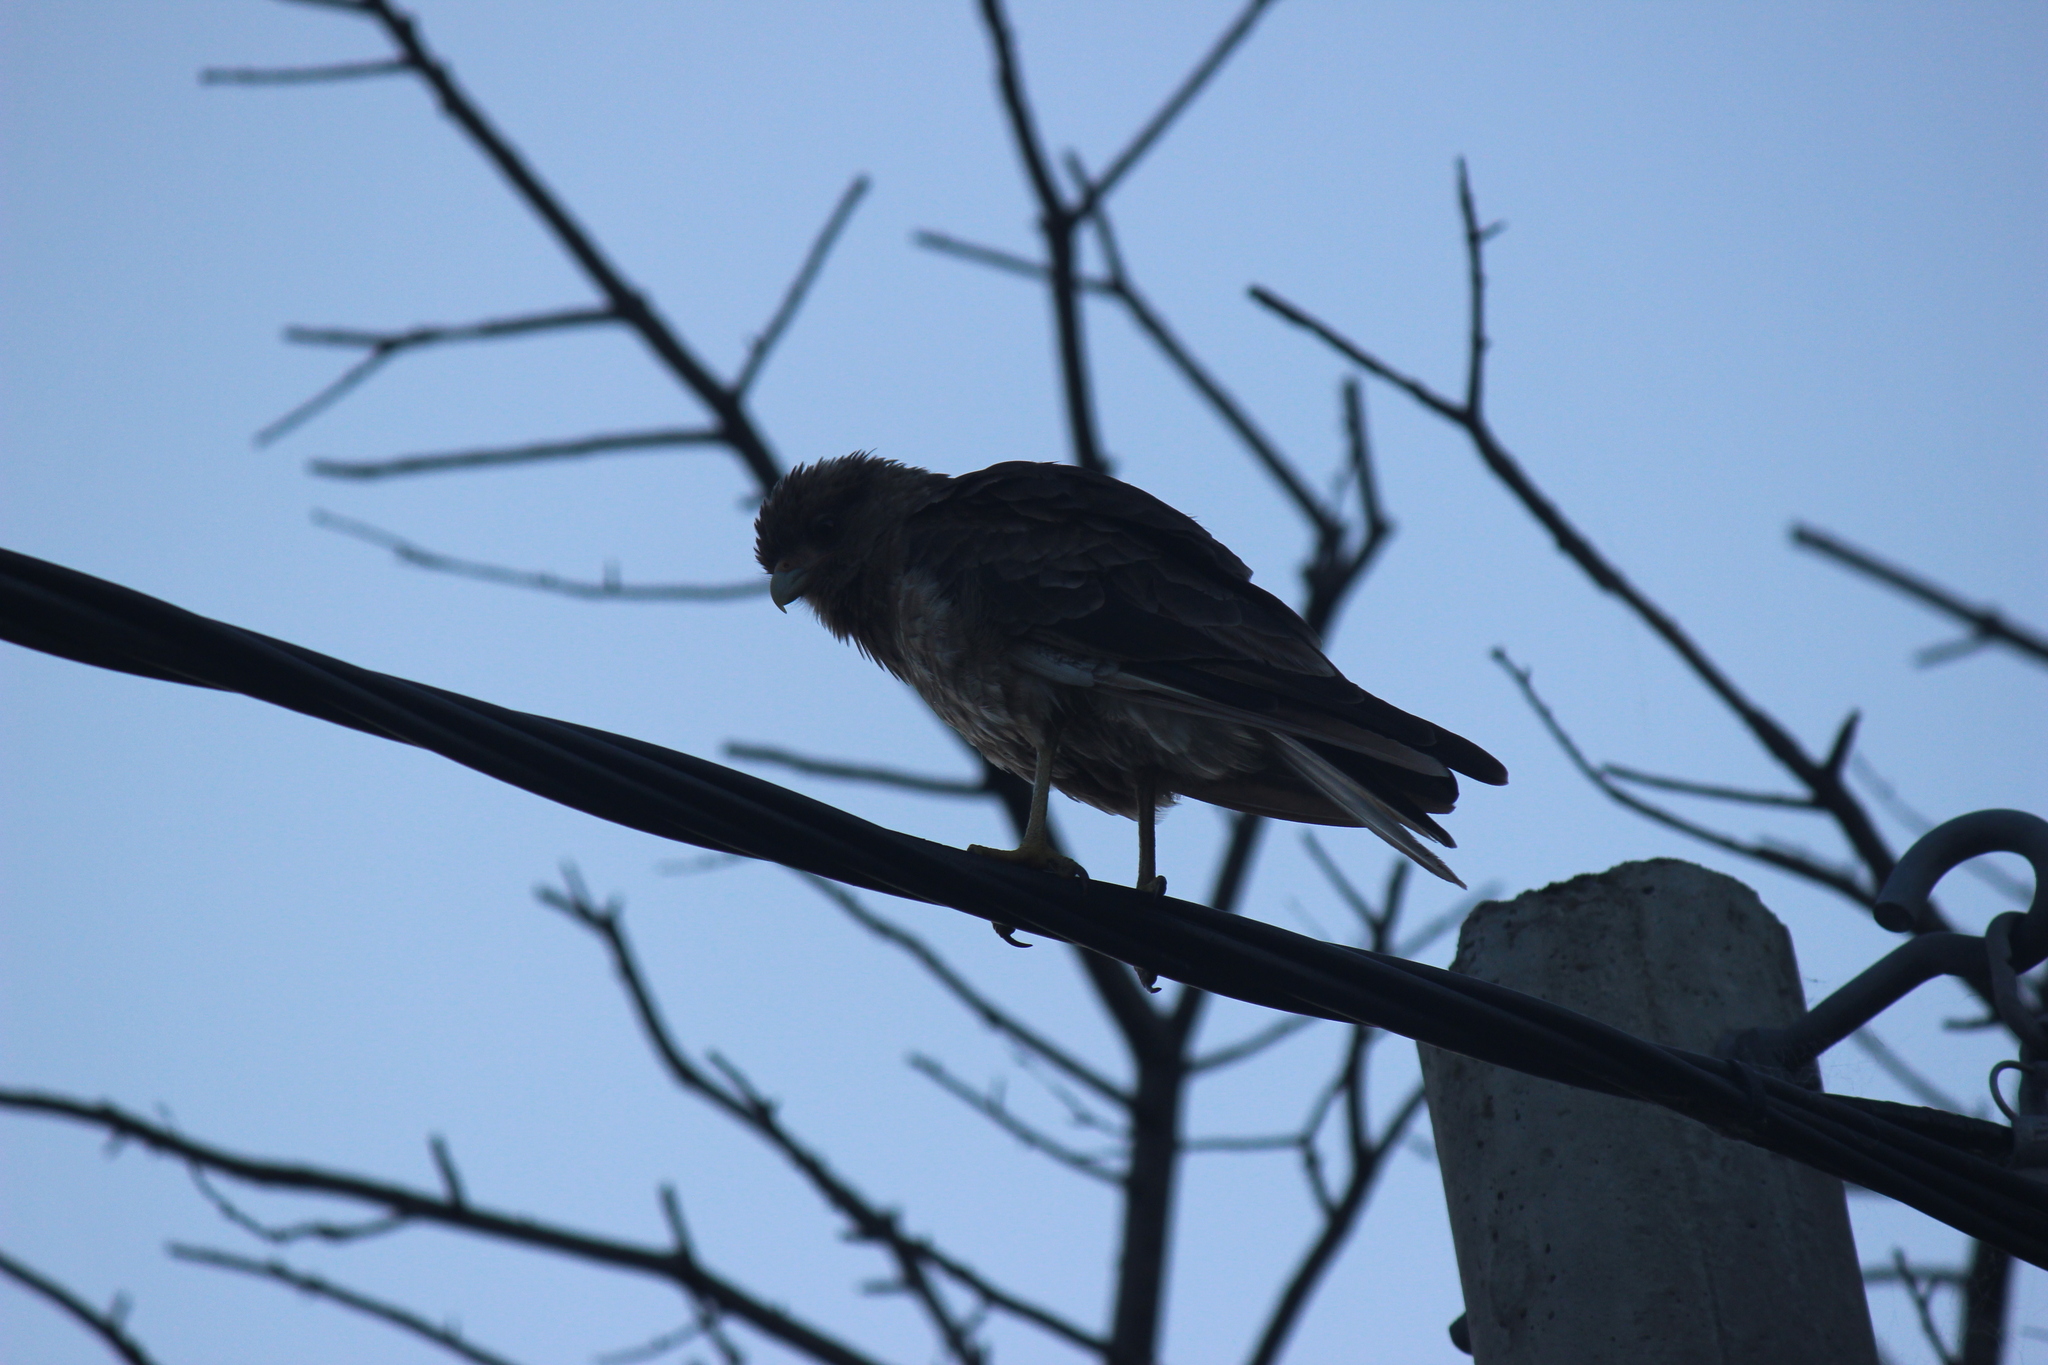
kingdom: Animalia
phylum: Chordata
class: Aves
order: Falconiformes
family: Falconidae
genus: Daptrius
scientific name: Daptrius
